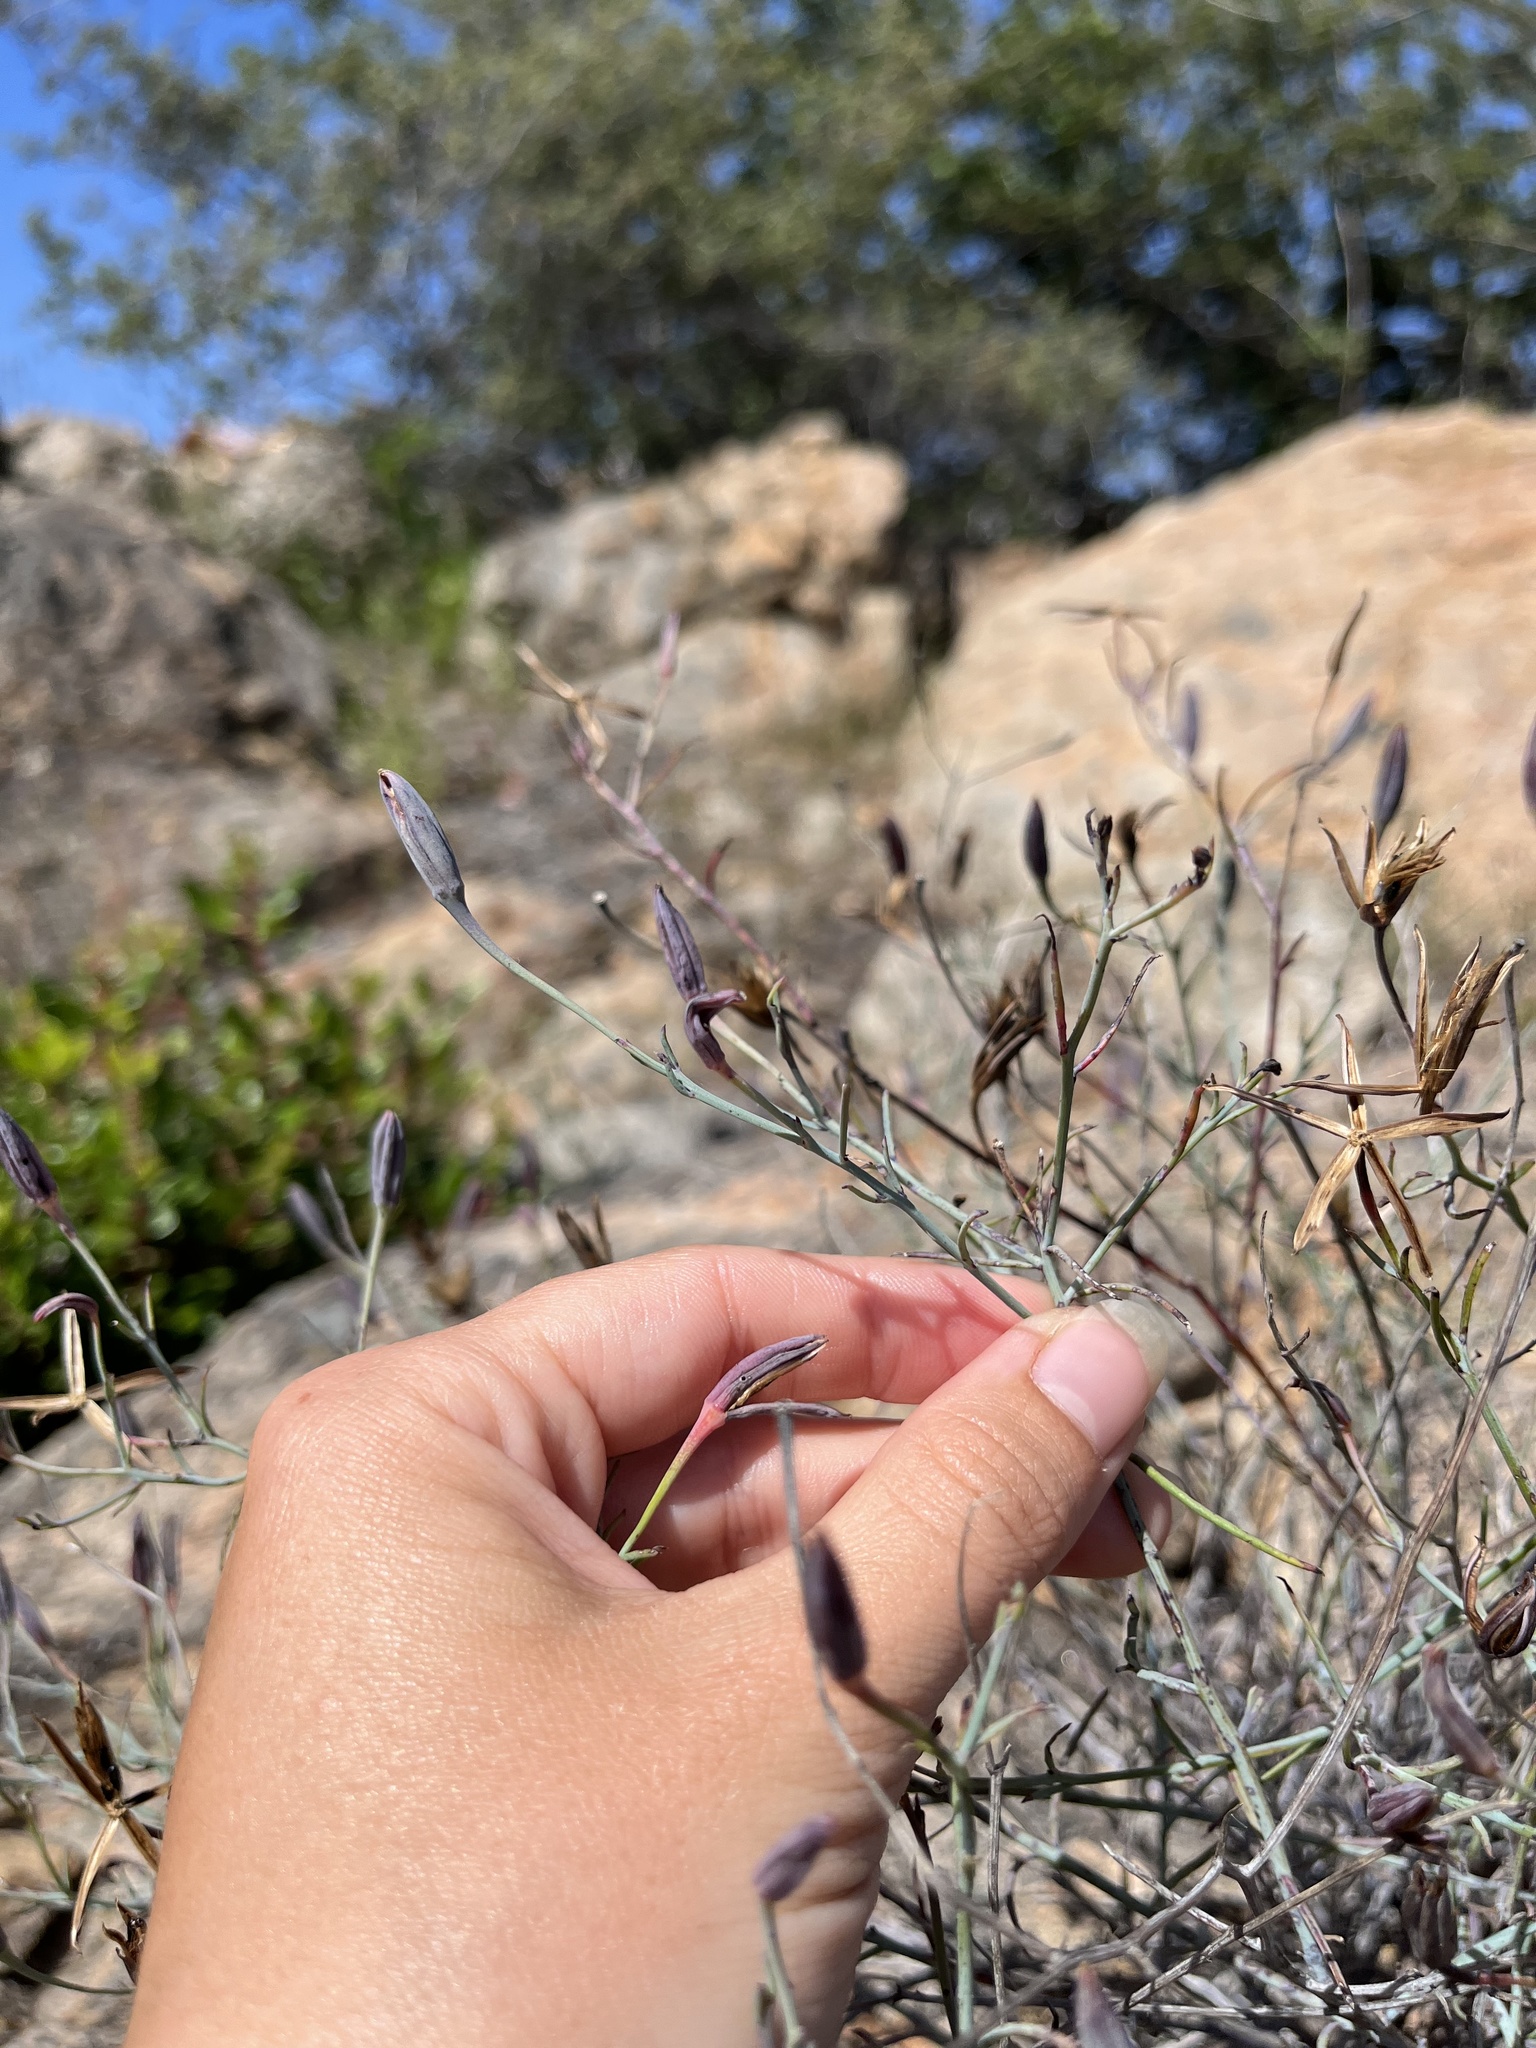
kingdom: Plantae
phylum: Tracheophyta
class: Magnoliopsida
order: Asterales
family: Asteraceae
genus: Porophyllum
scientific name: Porophyllum gracile
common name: Odora
